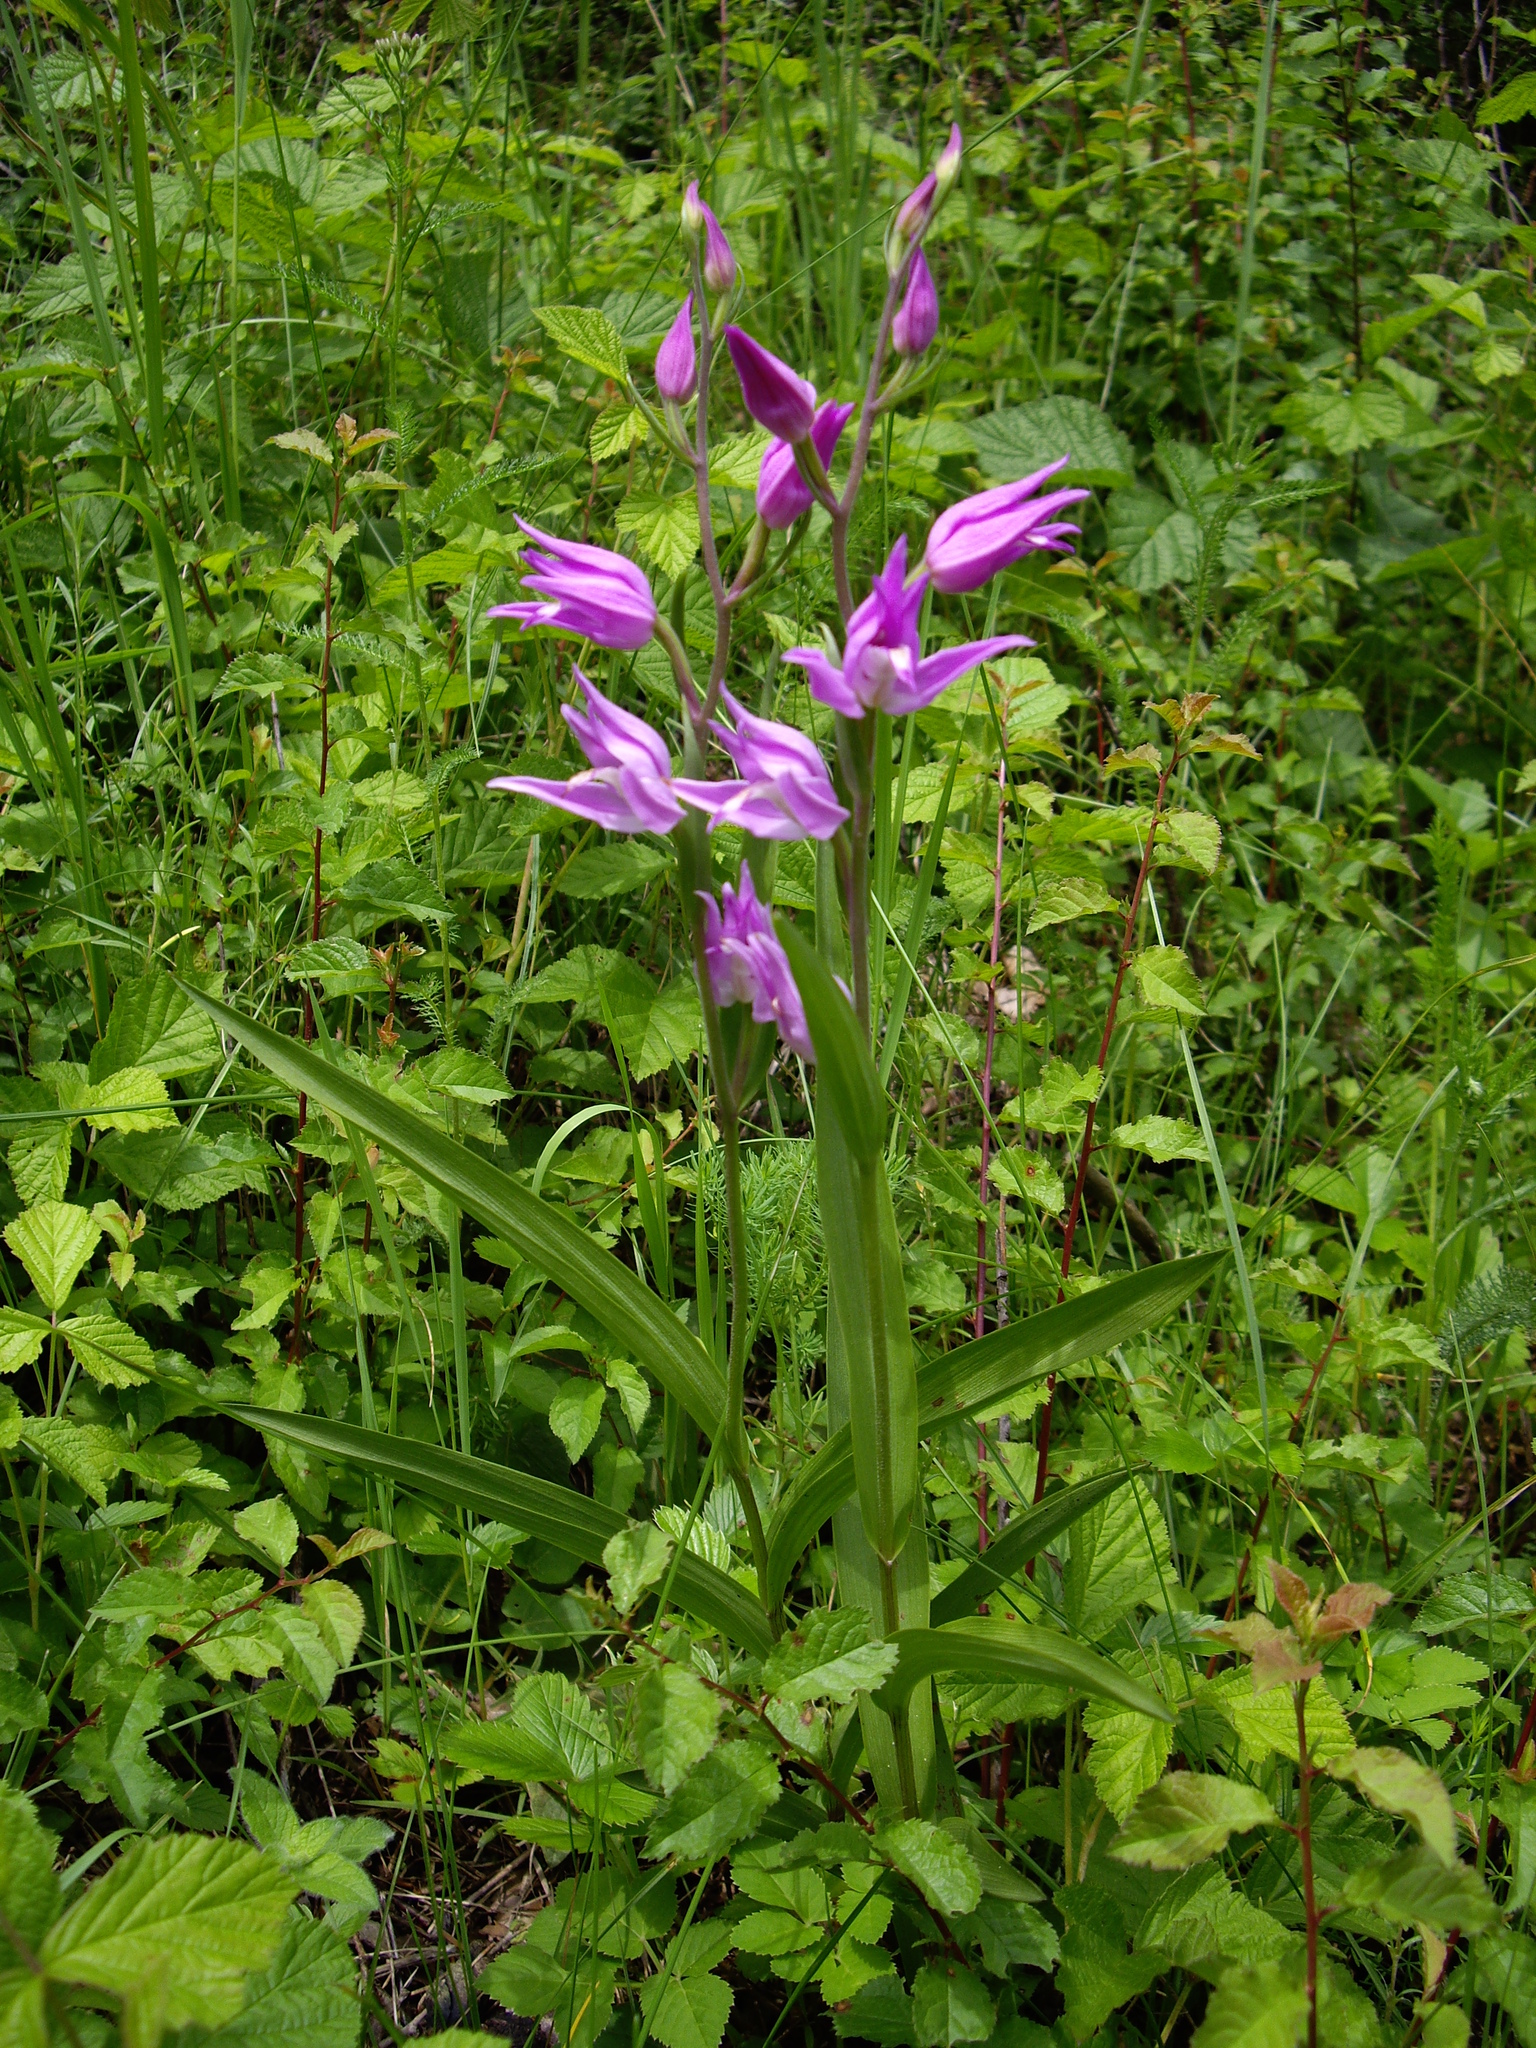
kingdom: Plantae
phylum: Tracheophyta
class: Liliopsida
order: Asparagales
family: Orchidaceae
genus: Cephalanthera
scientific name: Cephalanthera rubra
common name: Red helleborine
